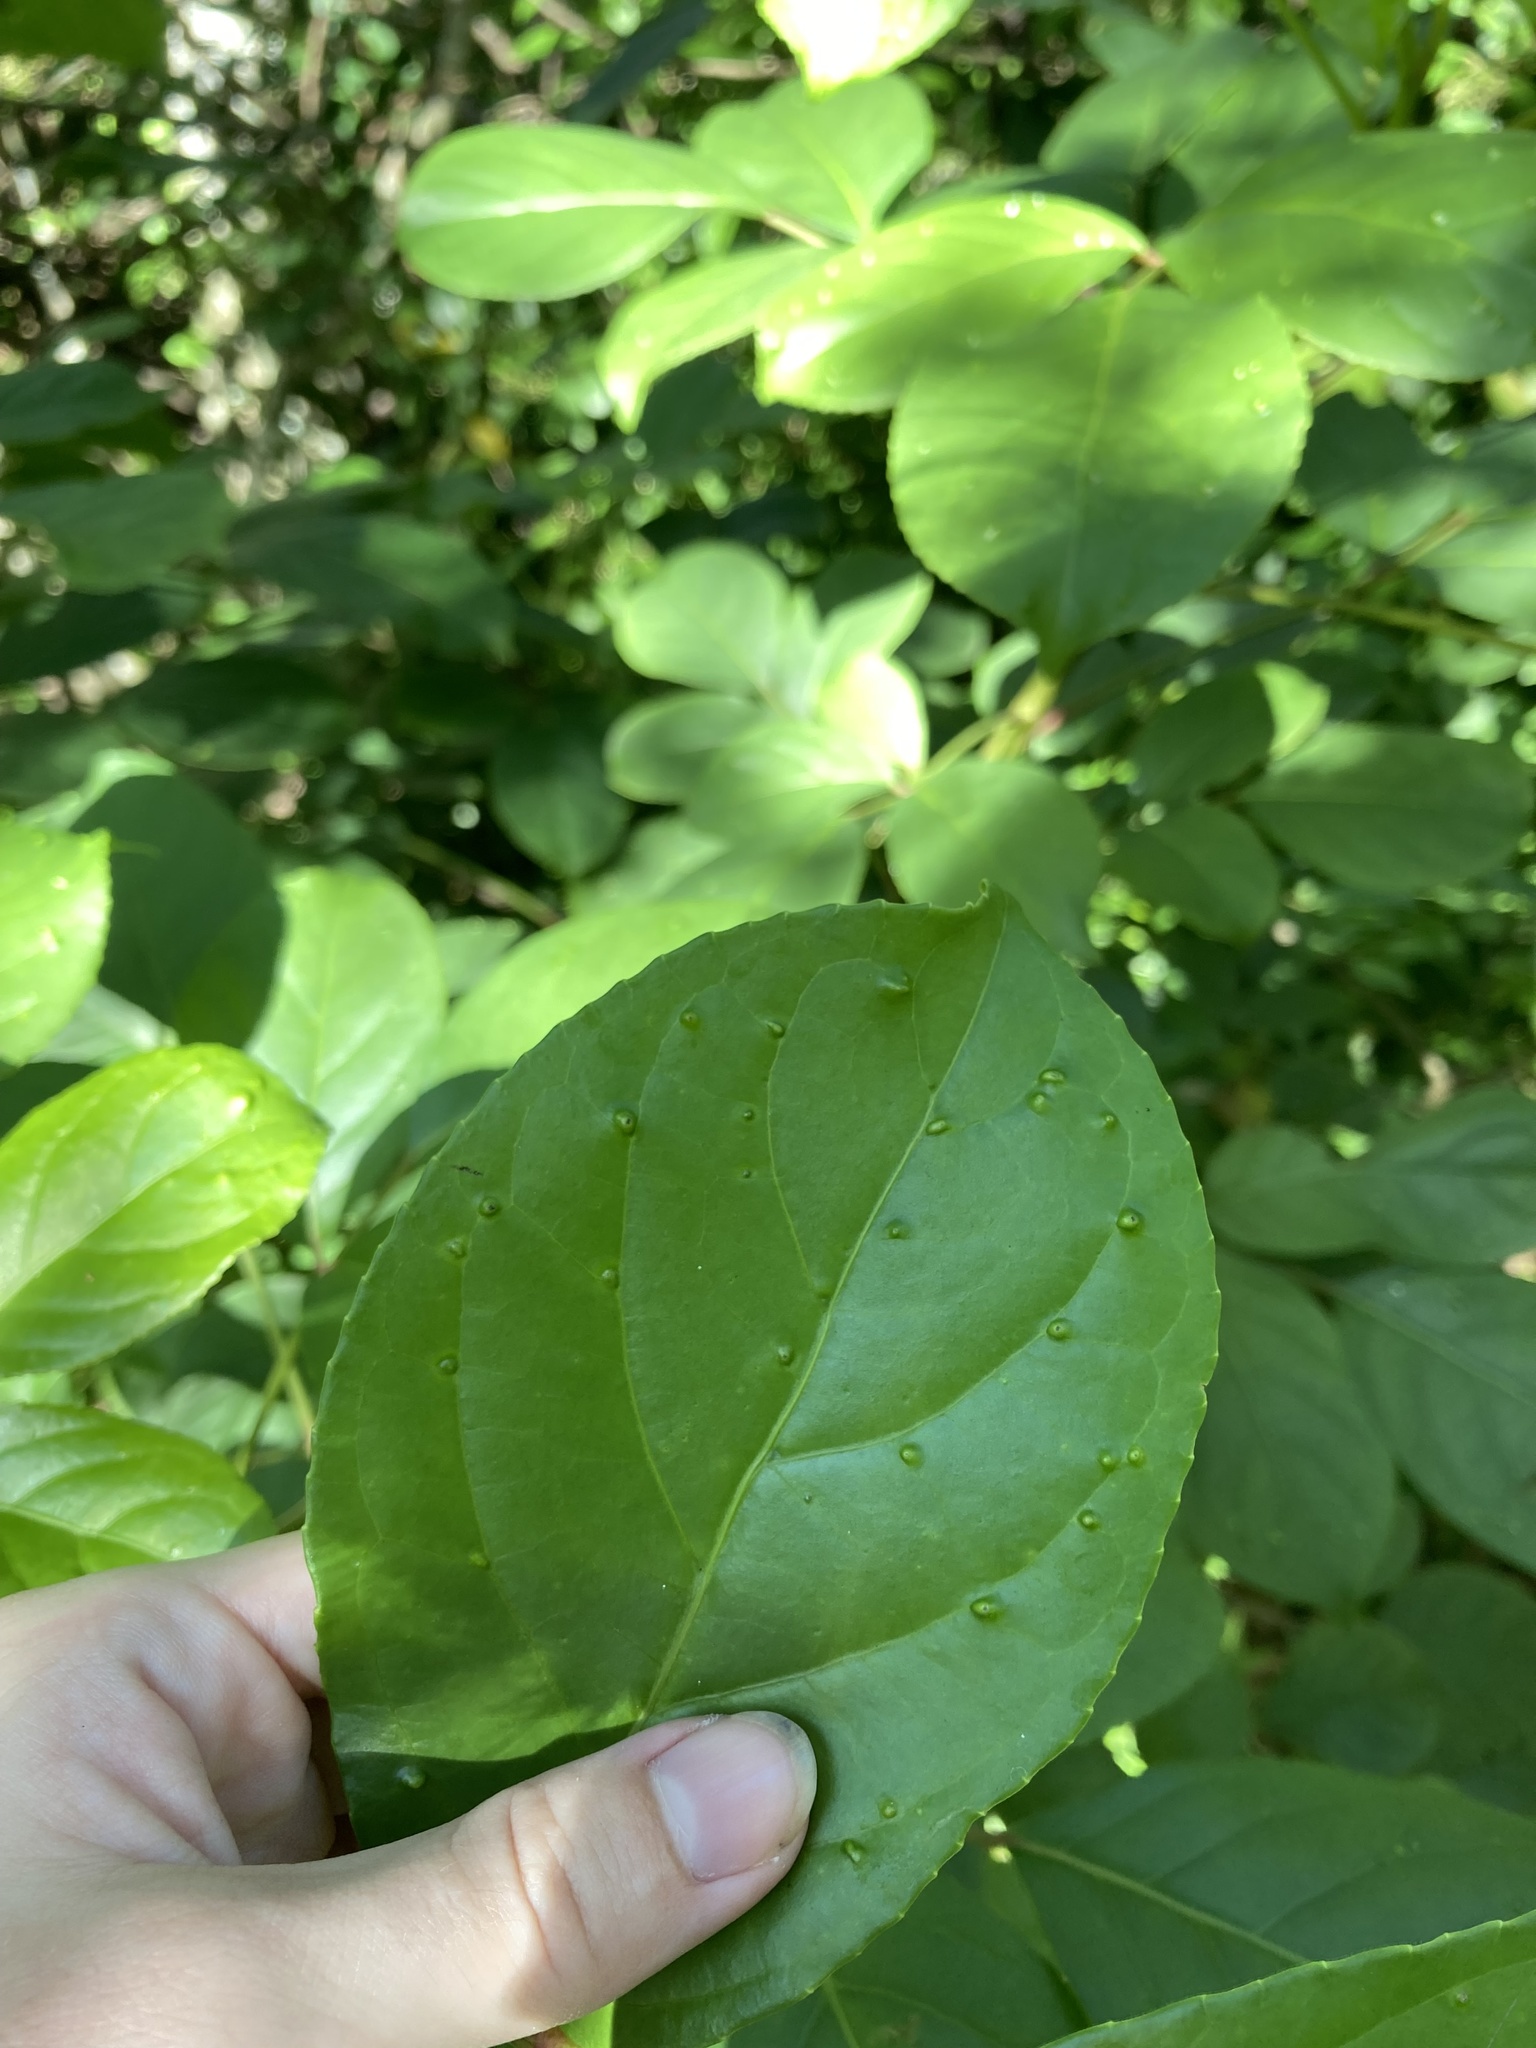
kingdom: Plantae
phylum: Tracheophyta
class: Magnoliopsida
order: Malpighiales
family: Phyllanthaceae
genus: Bischofia
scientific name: Bischofia javanica
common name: Javanese bishopwood
